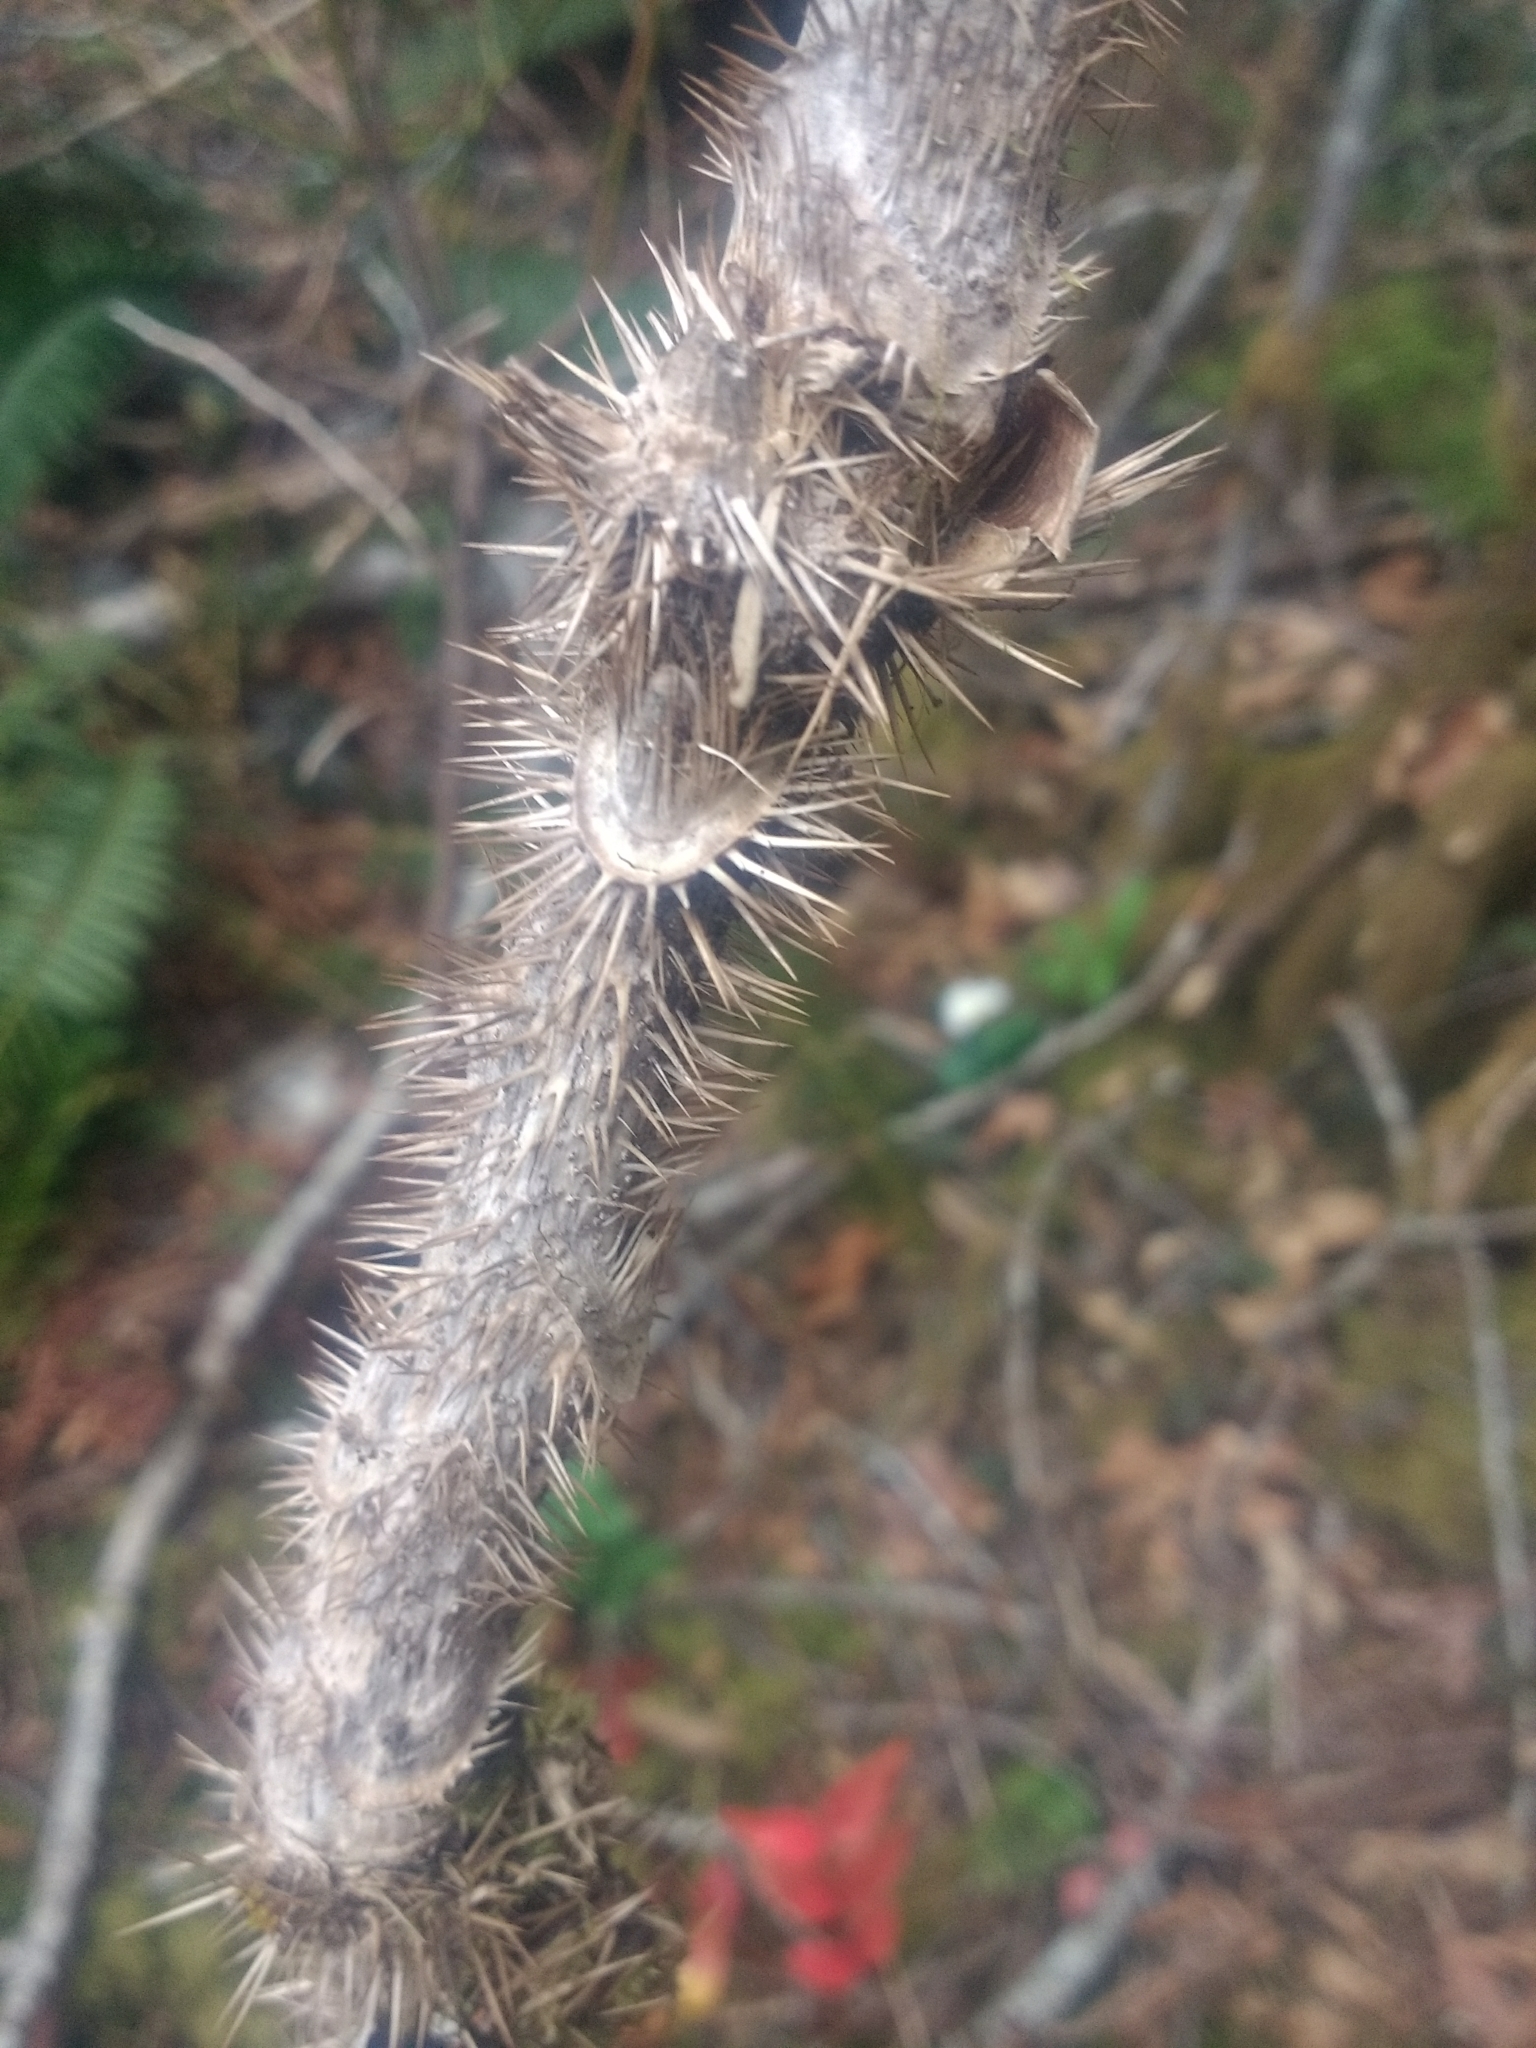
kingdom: Plantae
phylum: Tracheophyta
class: Magnoliopsida
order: Apiales
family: Araliaceae
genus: Oplopanax
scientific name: Oplopanax horridus
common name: Devil's walking-stick
